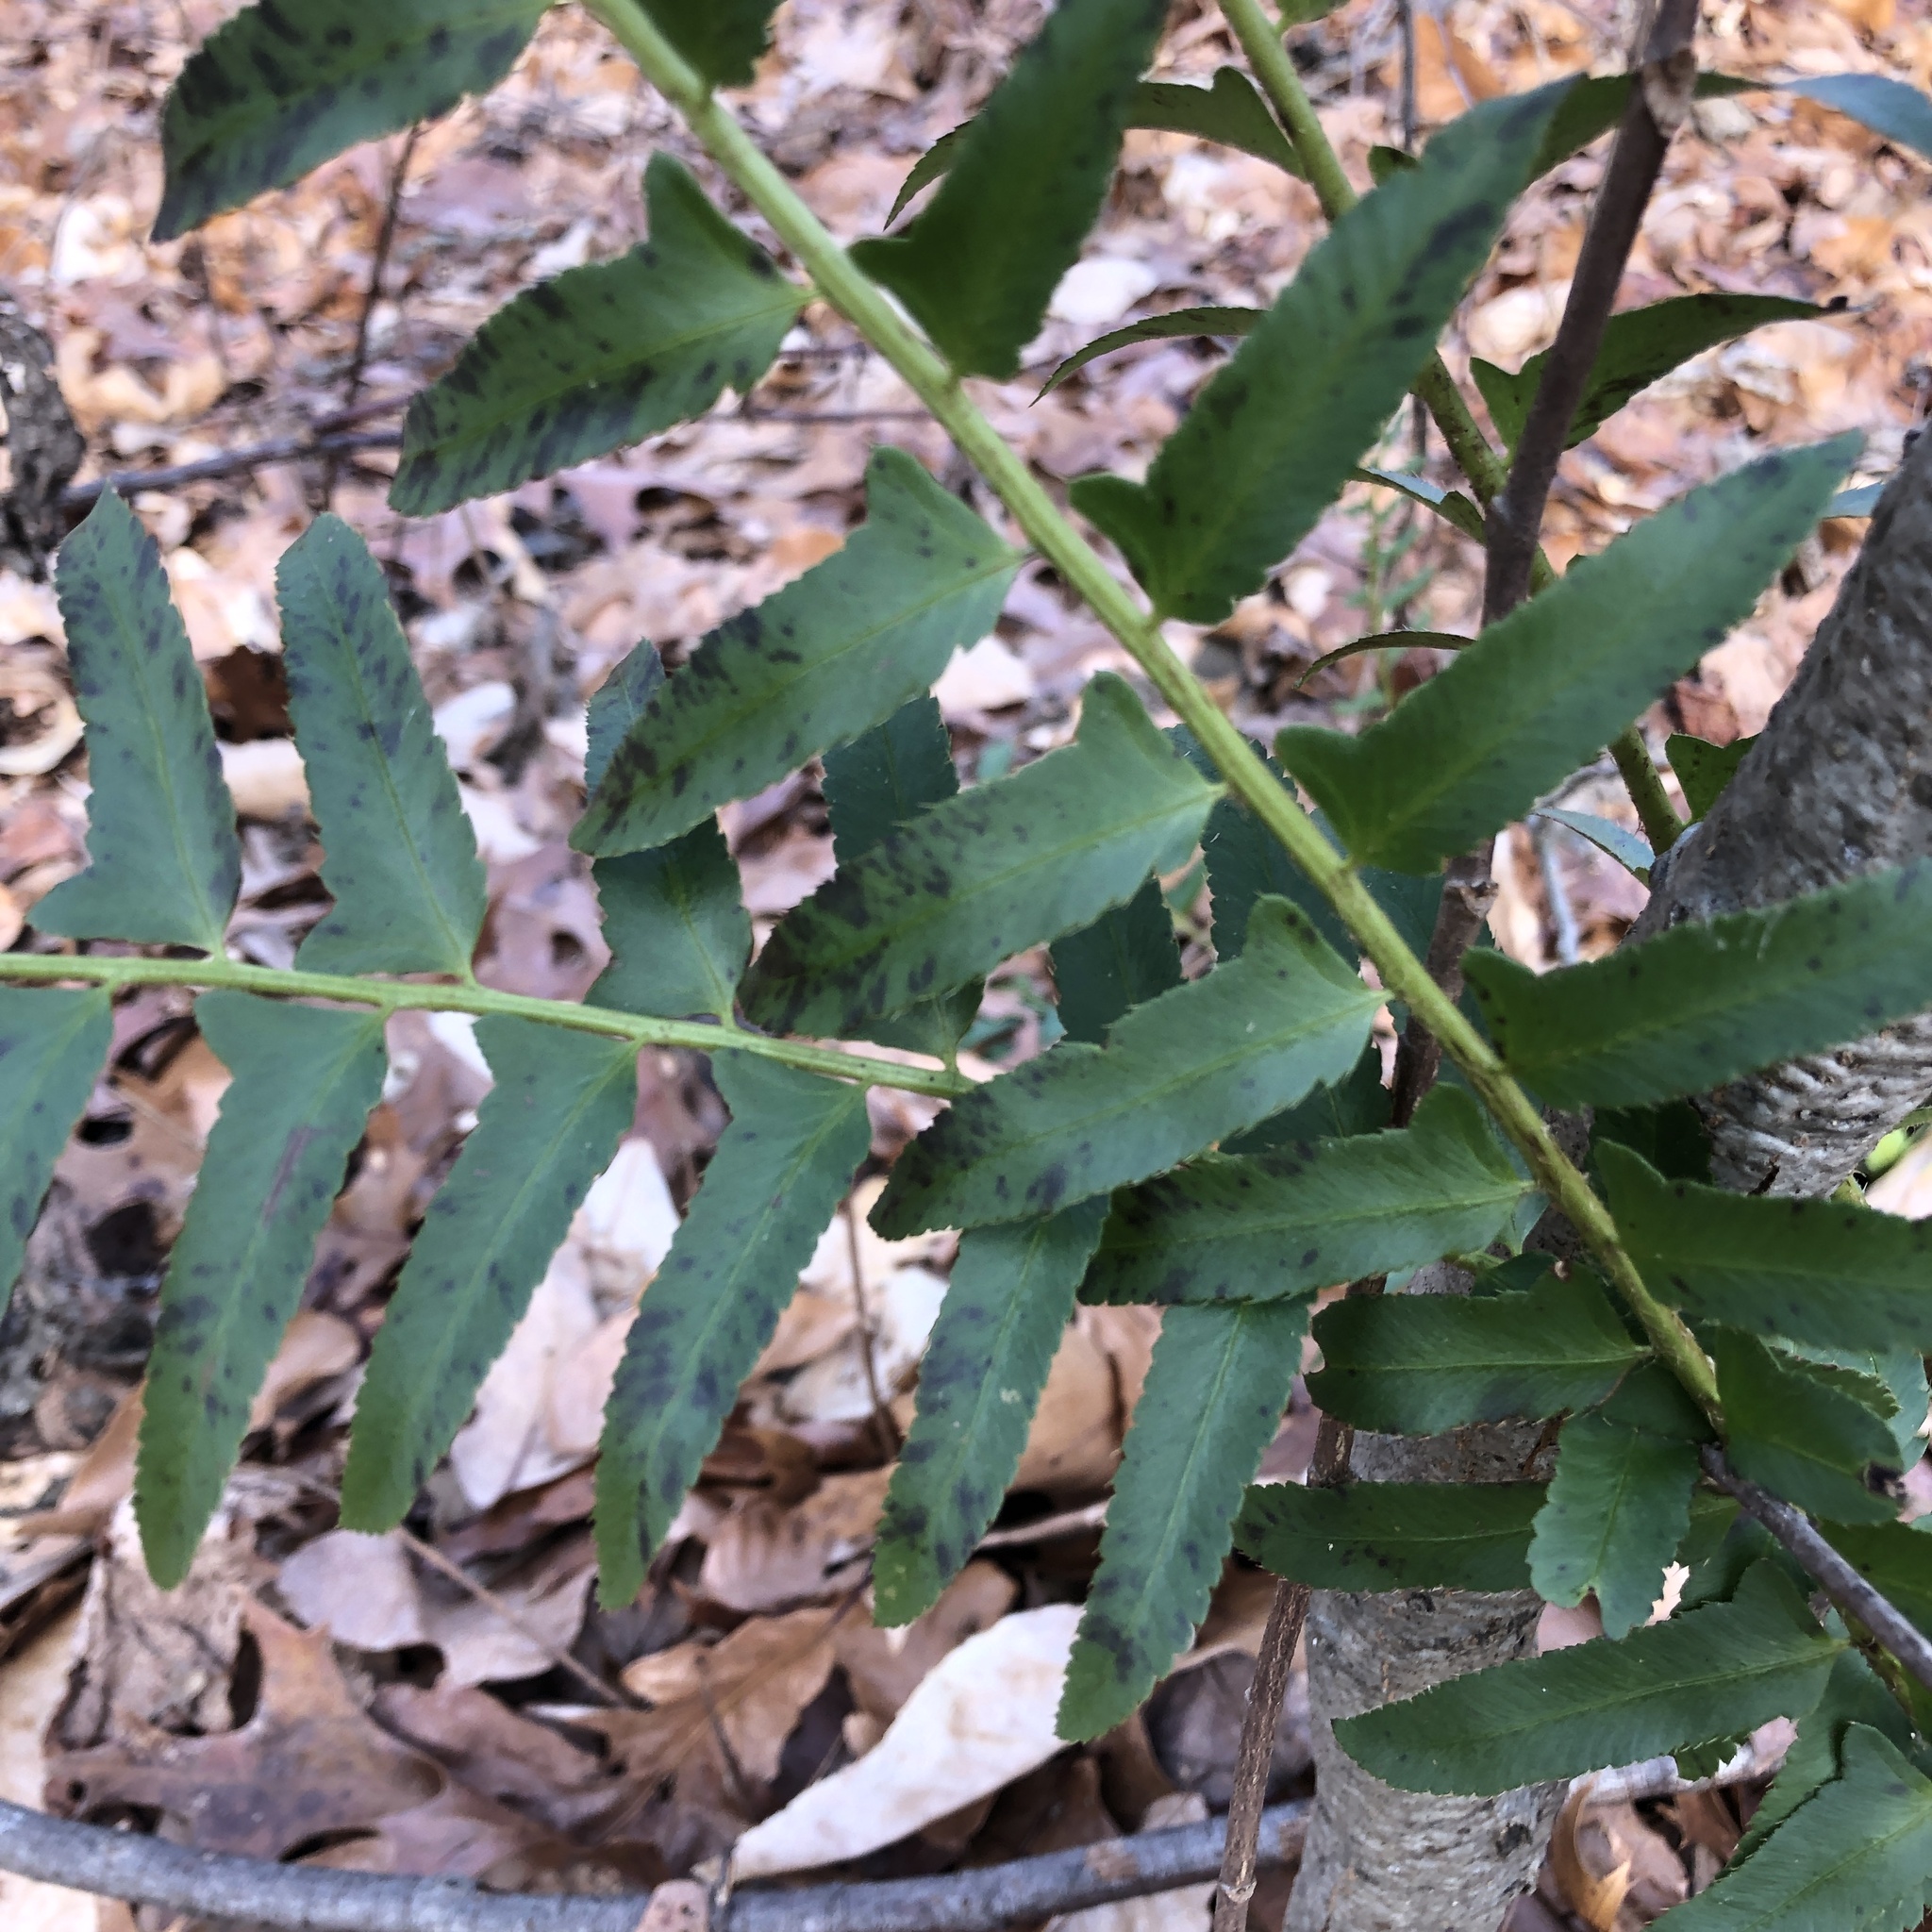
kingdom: Plantae
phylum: Tracheophyta
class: Polypodiopsida
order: Polypodiales
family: Dryopteridaceae
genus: Polystichum
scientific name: Polystichum acrostichoides
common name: Christmas fern
